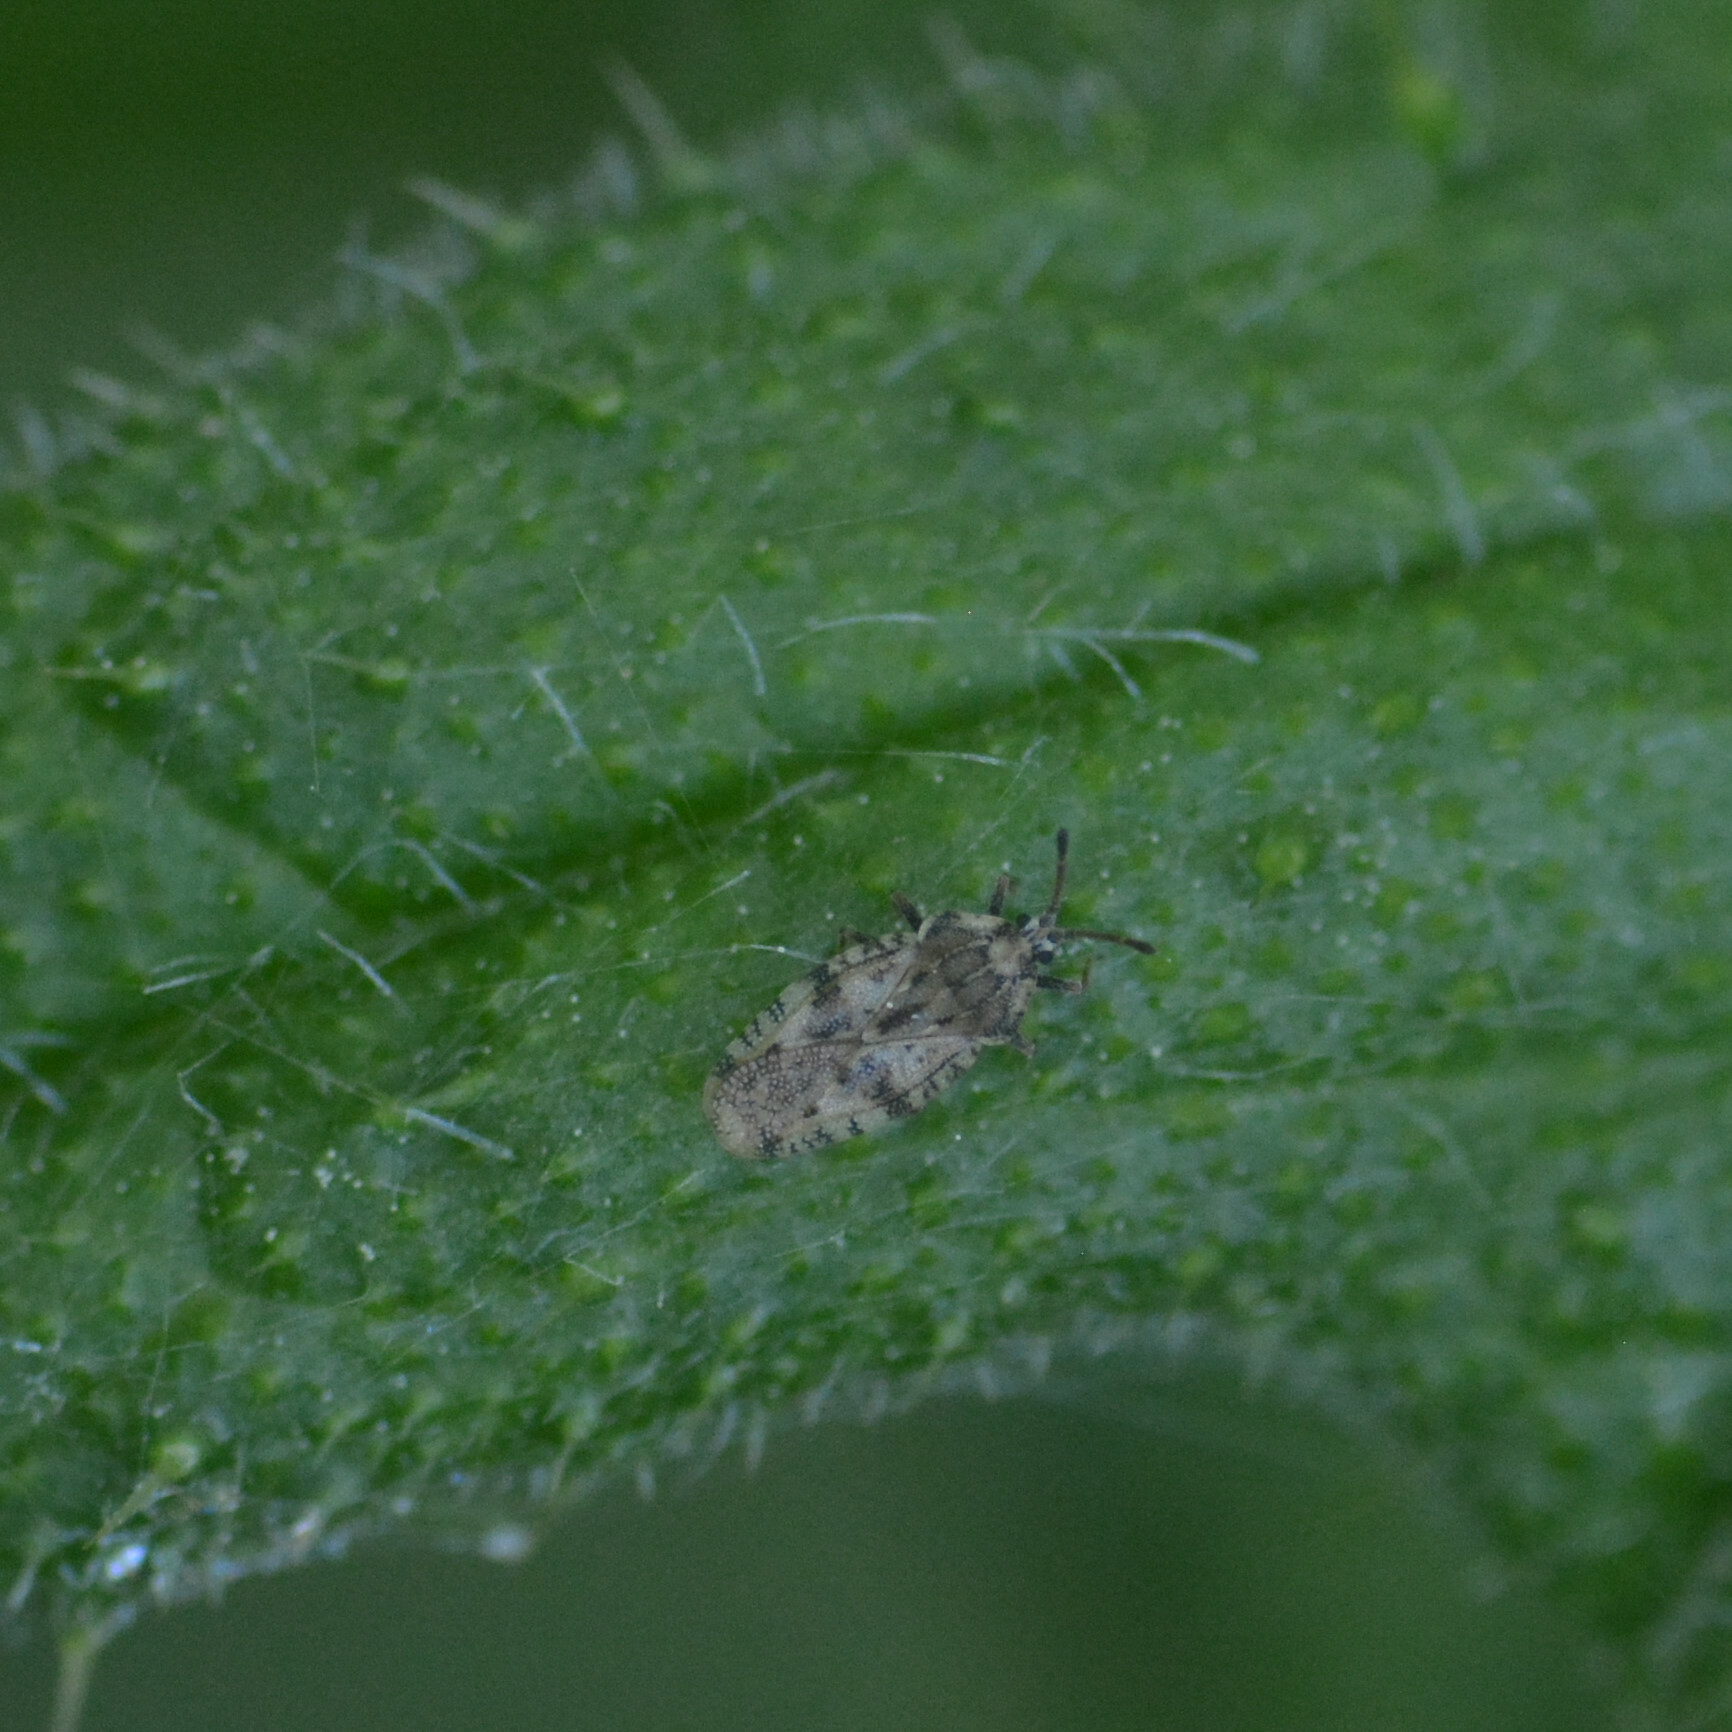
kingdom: Animalia
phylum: Arthropoda
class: Insecta
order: Hemiptera
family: Tingidae
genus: Tingis
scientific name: Tingis cardui
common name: Spear thistle lacebug
